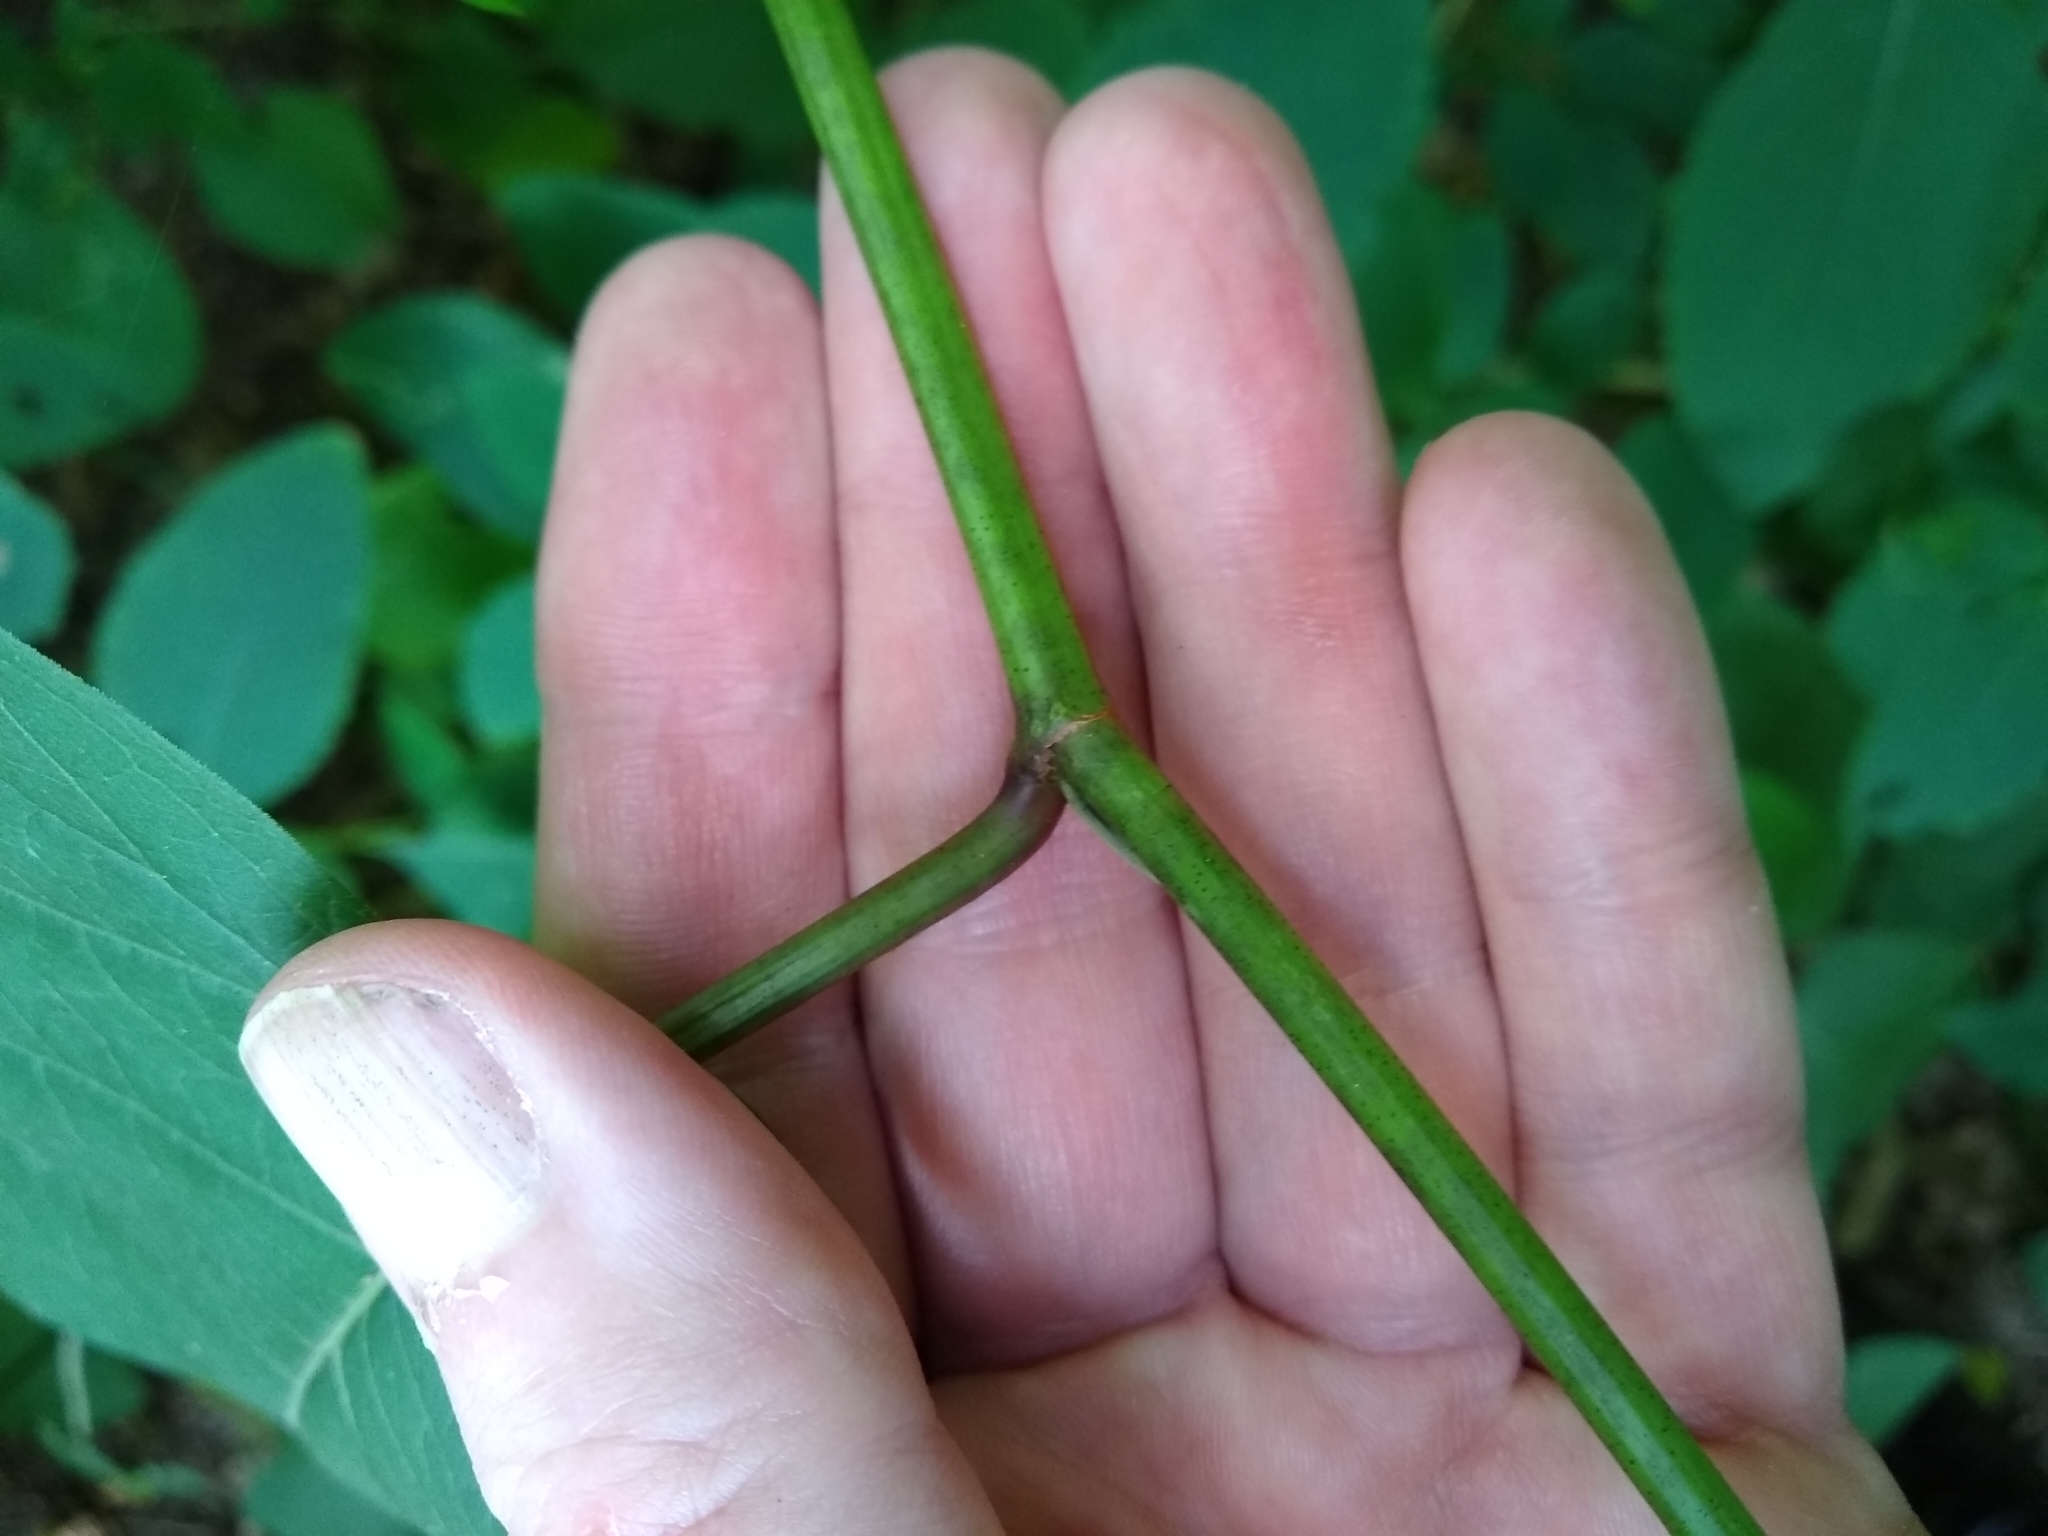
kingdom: Plantae
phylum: Tracheophyta
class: Magnoliopsida
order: Caryophyllales
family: Polygonaceae
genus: Reynoutria
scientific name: Reynoutria bohemica
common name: Bohemian knotweed
